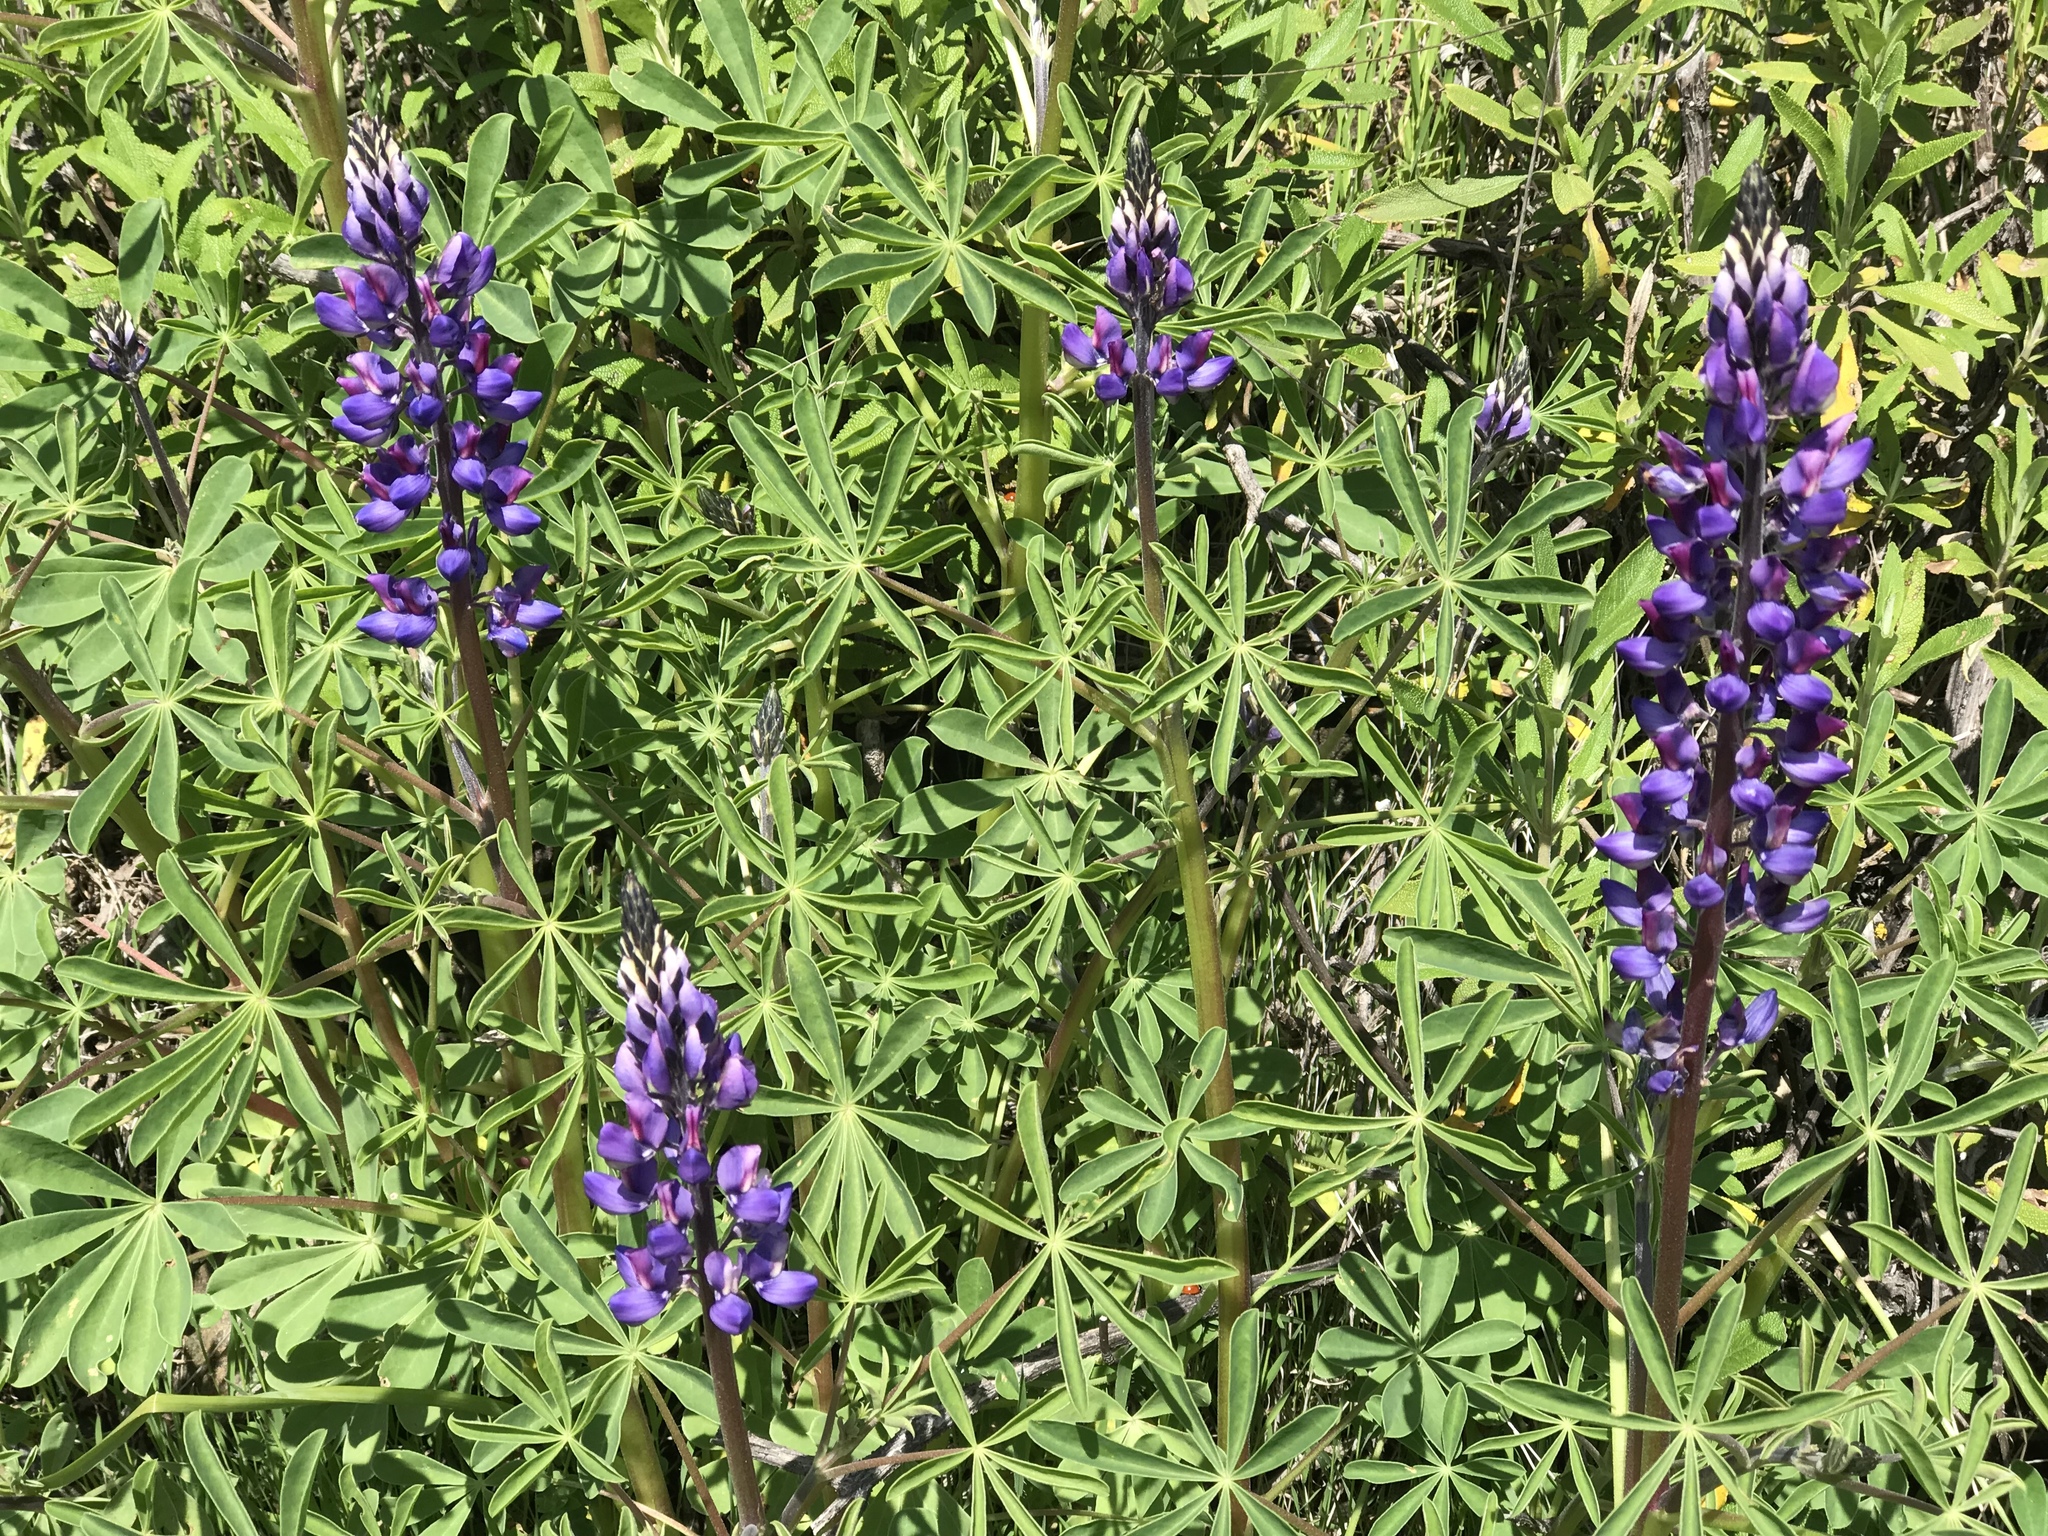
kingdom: Plantae
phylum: Tracheophyta
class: Magnoliopsida
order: Fabales
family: Fabaceae
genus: Lupinus
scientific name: Lupinus succulentus
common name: Arroyo lupine
